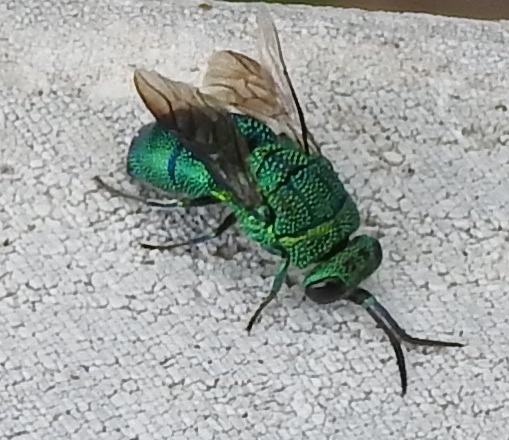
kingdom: Animalia
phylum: Arthropoda
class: Insecta
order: Hymenoptera
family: Chrysididae
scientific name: Chrysididae
